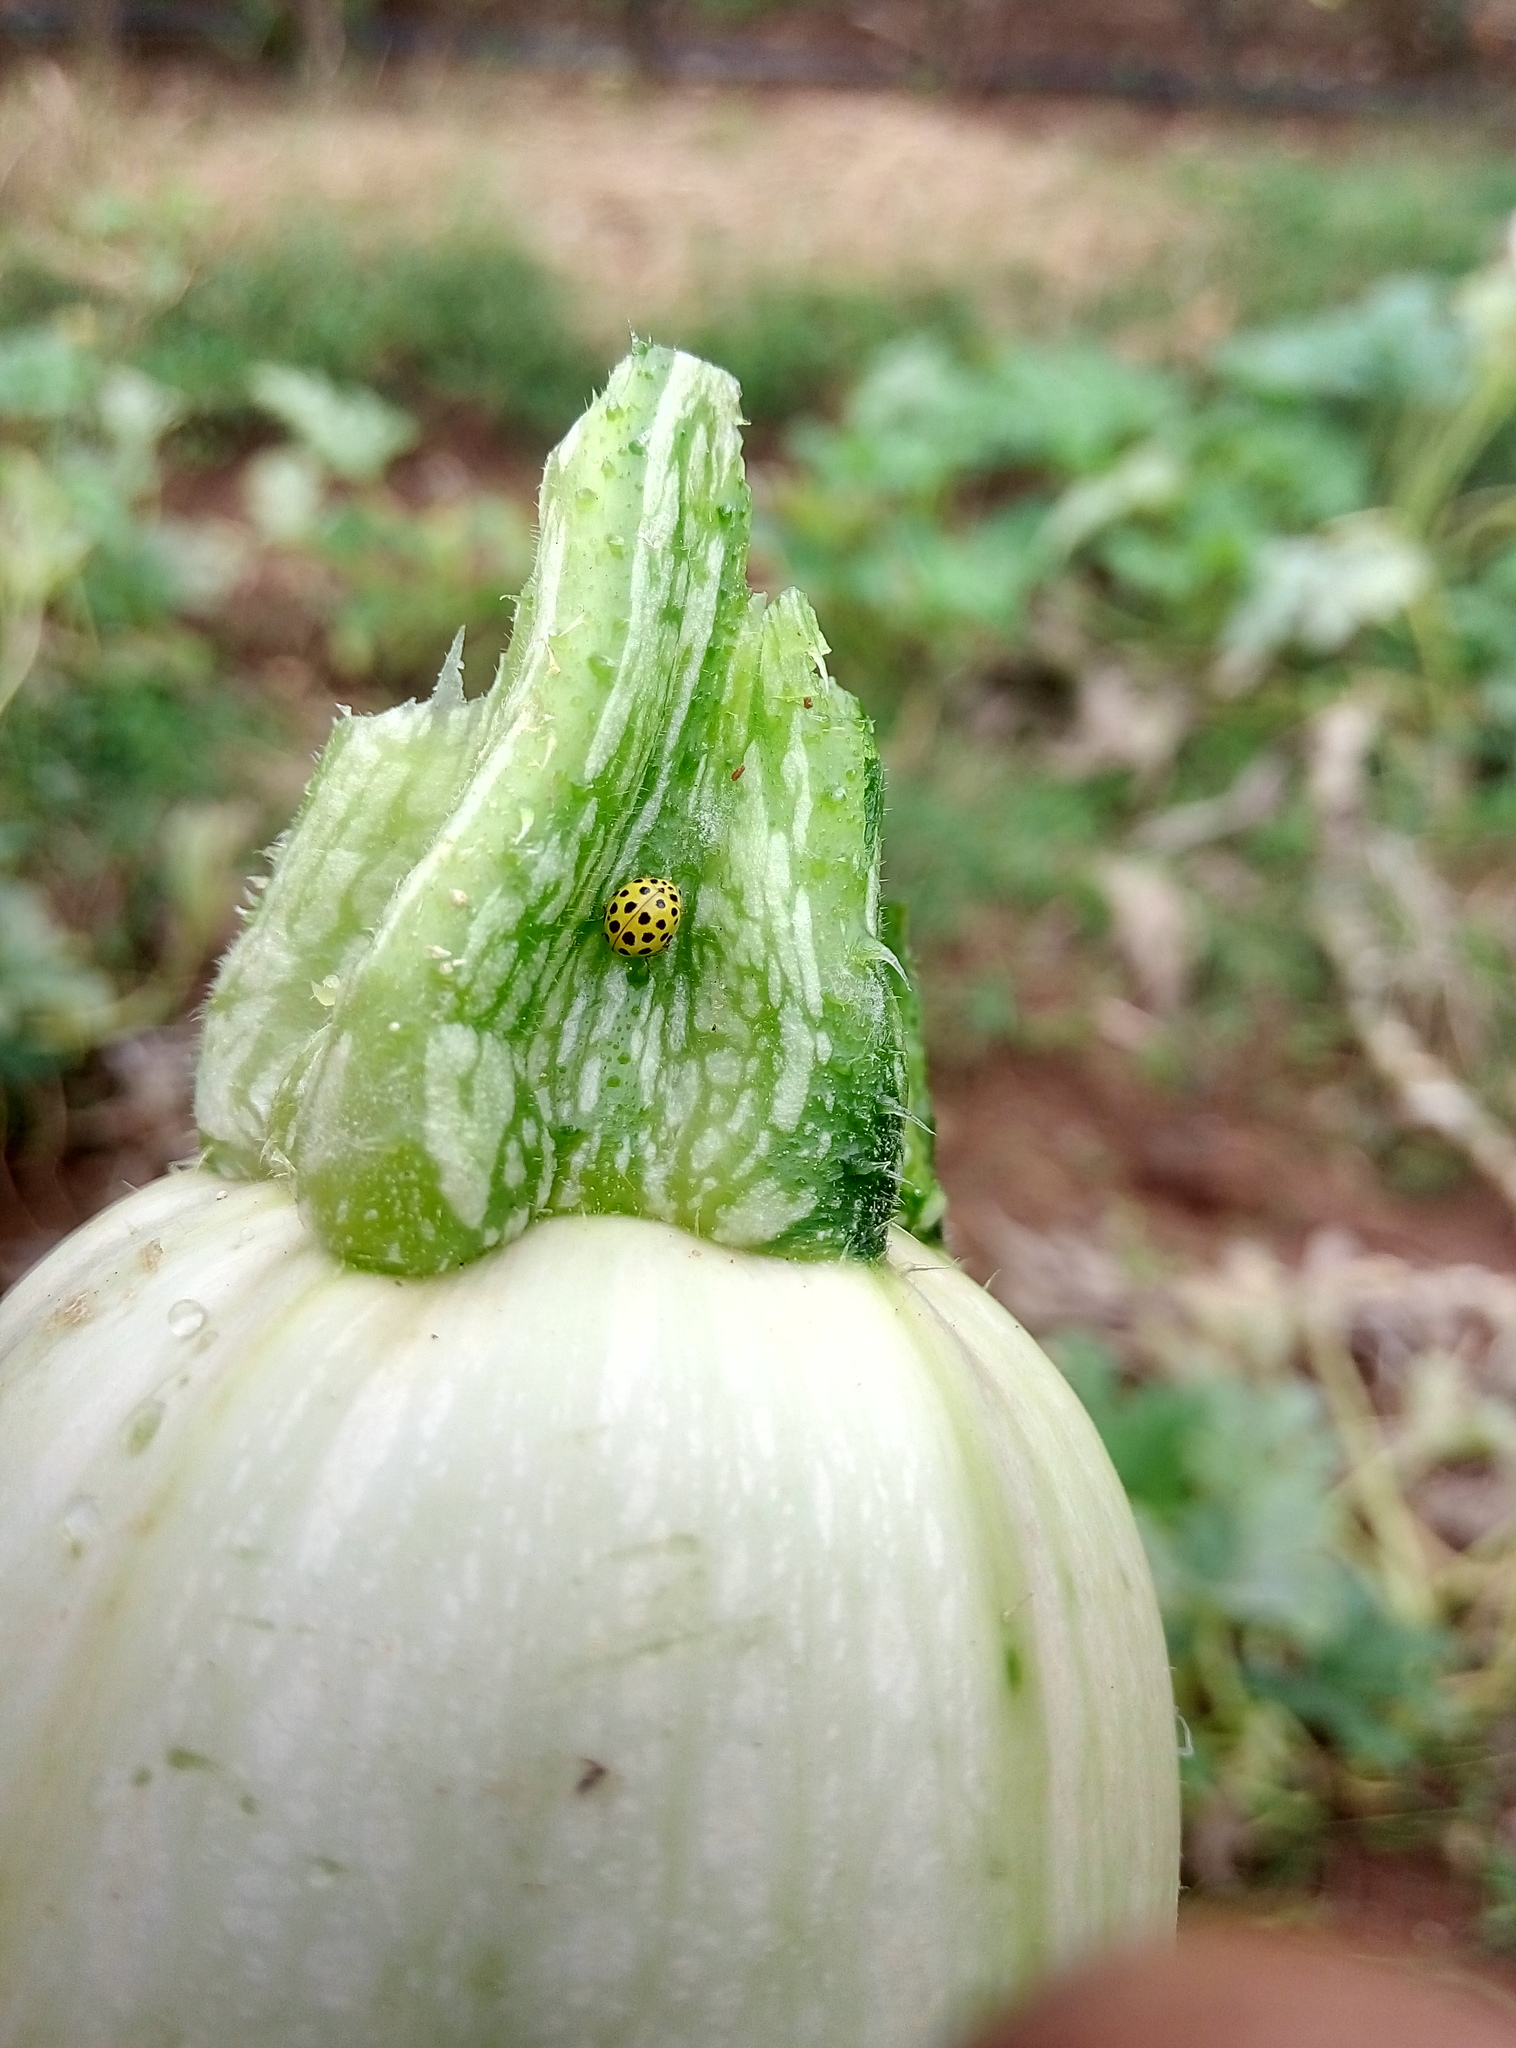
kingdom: Animalia
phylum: Arthropoda
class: Insecta
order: Coleoptera
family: Coccinellidae
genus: Psyllobora
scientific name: Psyllobora vigintiduopunctata
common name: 22-spot ladybird
